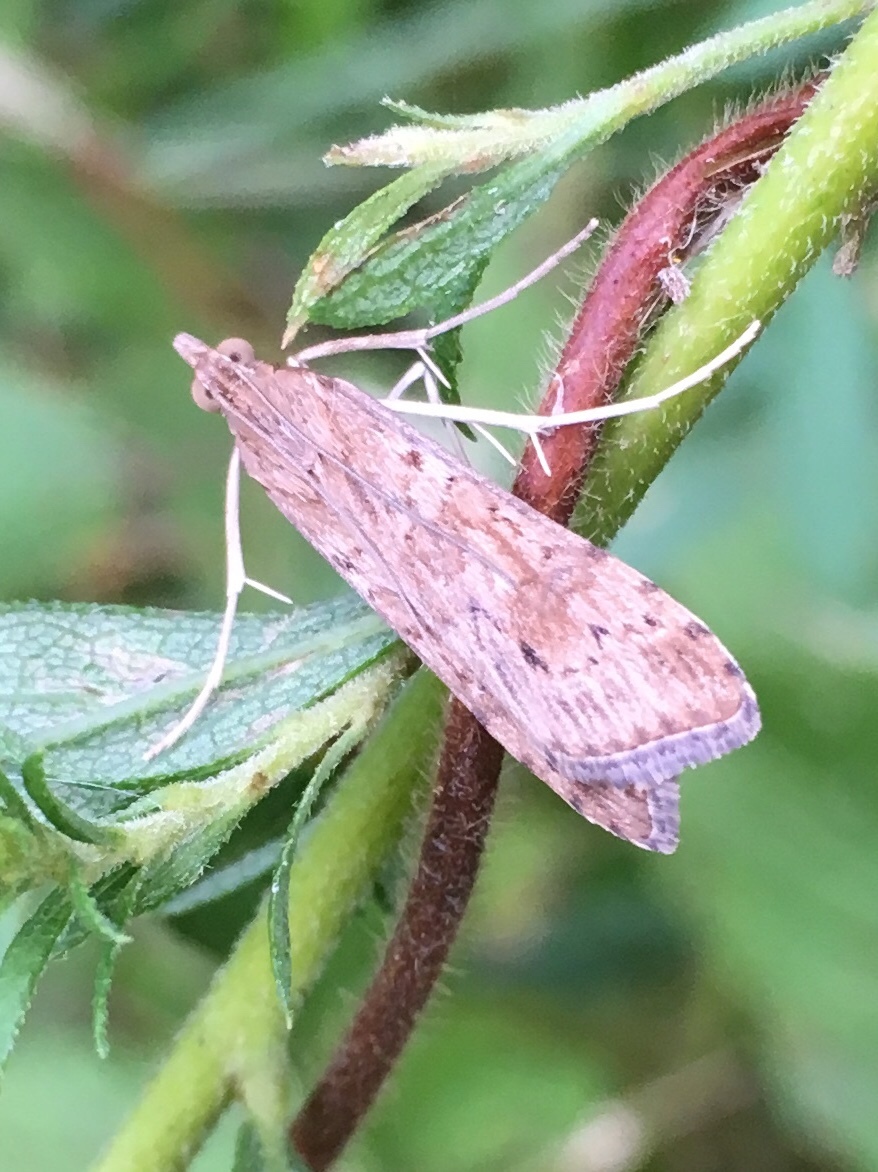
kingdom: Animalia
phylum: Arthropoda
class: Insecta
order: Lepidoptera
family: Crambidae
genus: Nomophila
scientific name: Nomophila nearctica
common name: American rush veneer
